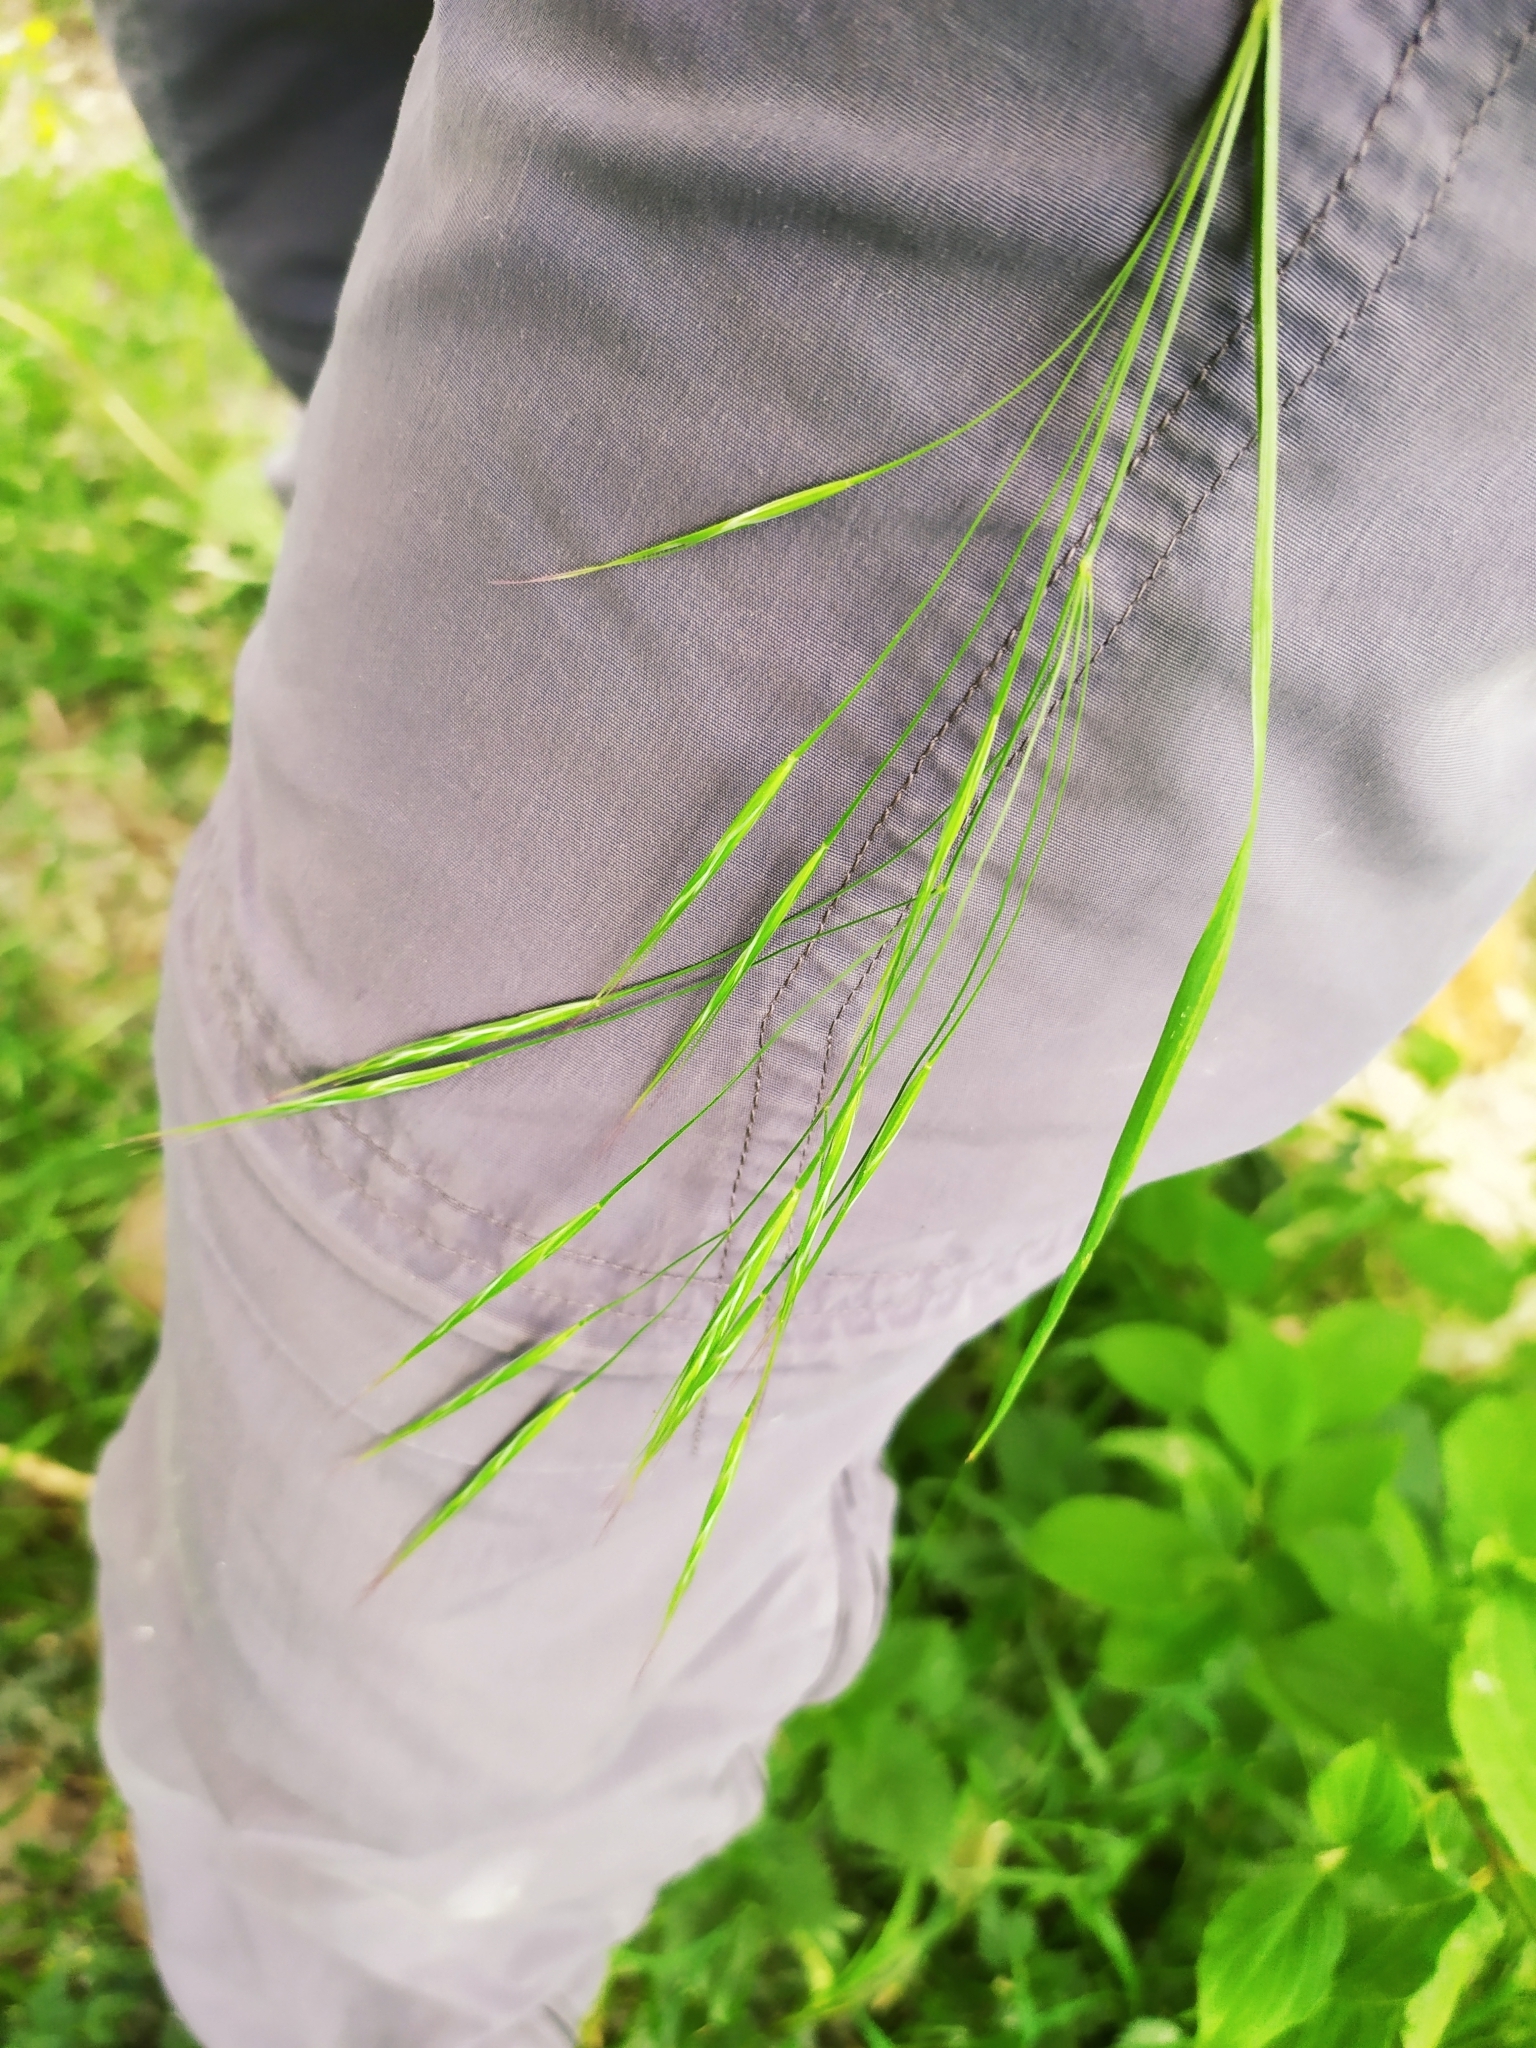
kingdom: Plantae
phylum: Tracheophyta
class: Liliopsida
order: Poales
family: Poaceae
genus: Bromus
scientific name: Bromus sterilis
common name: Poverty brome
